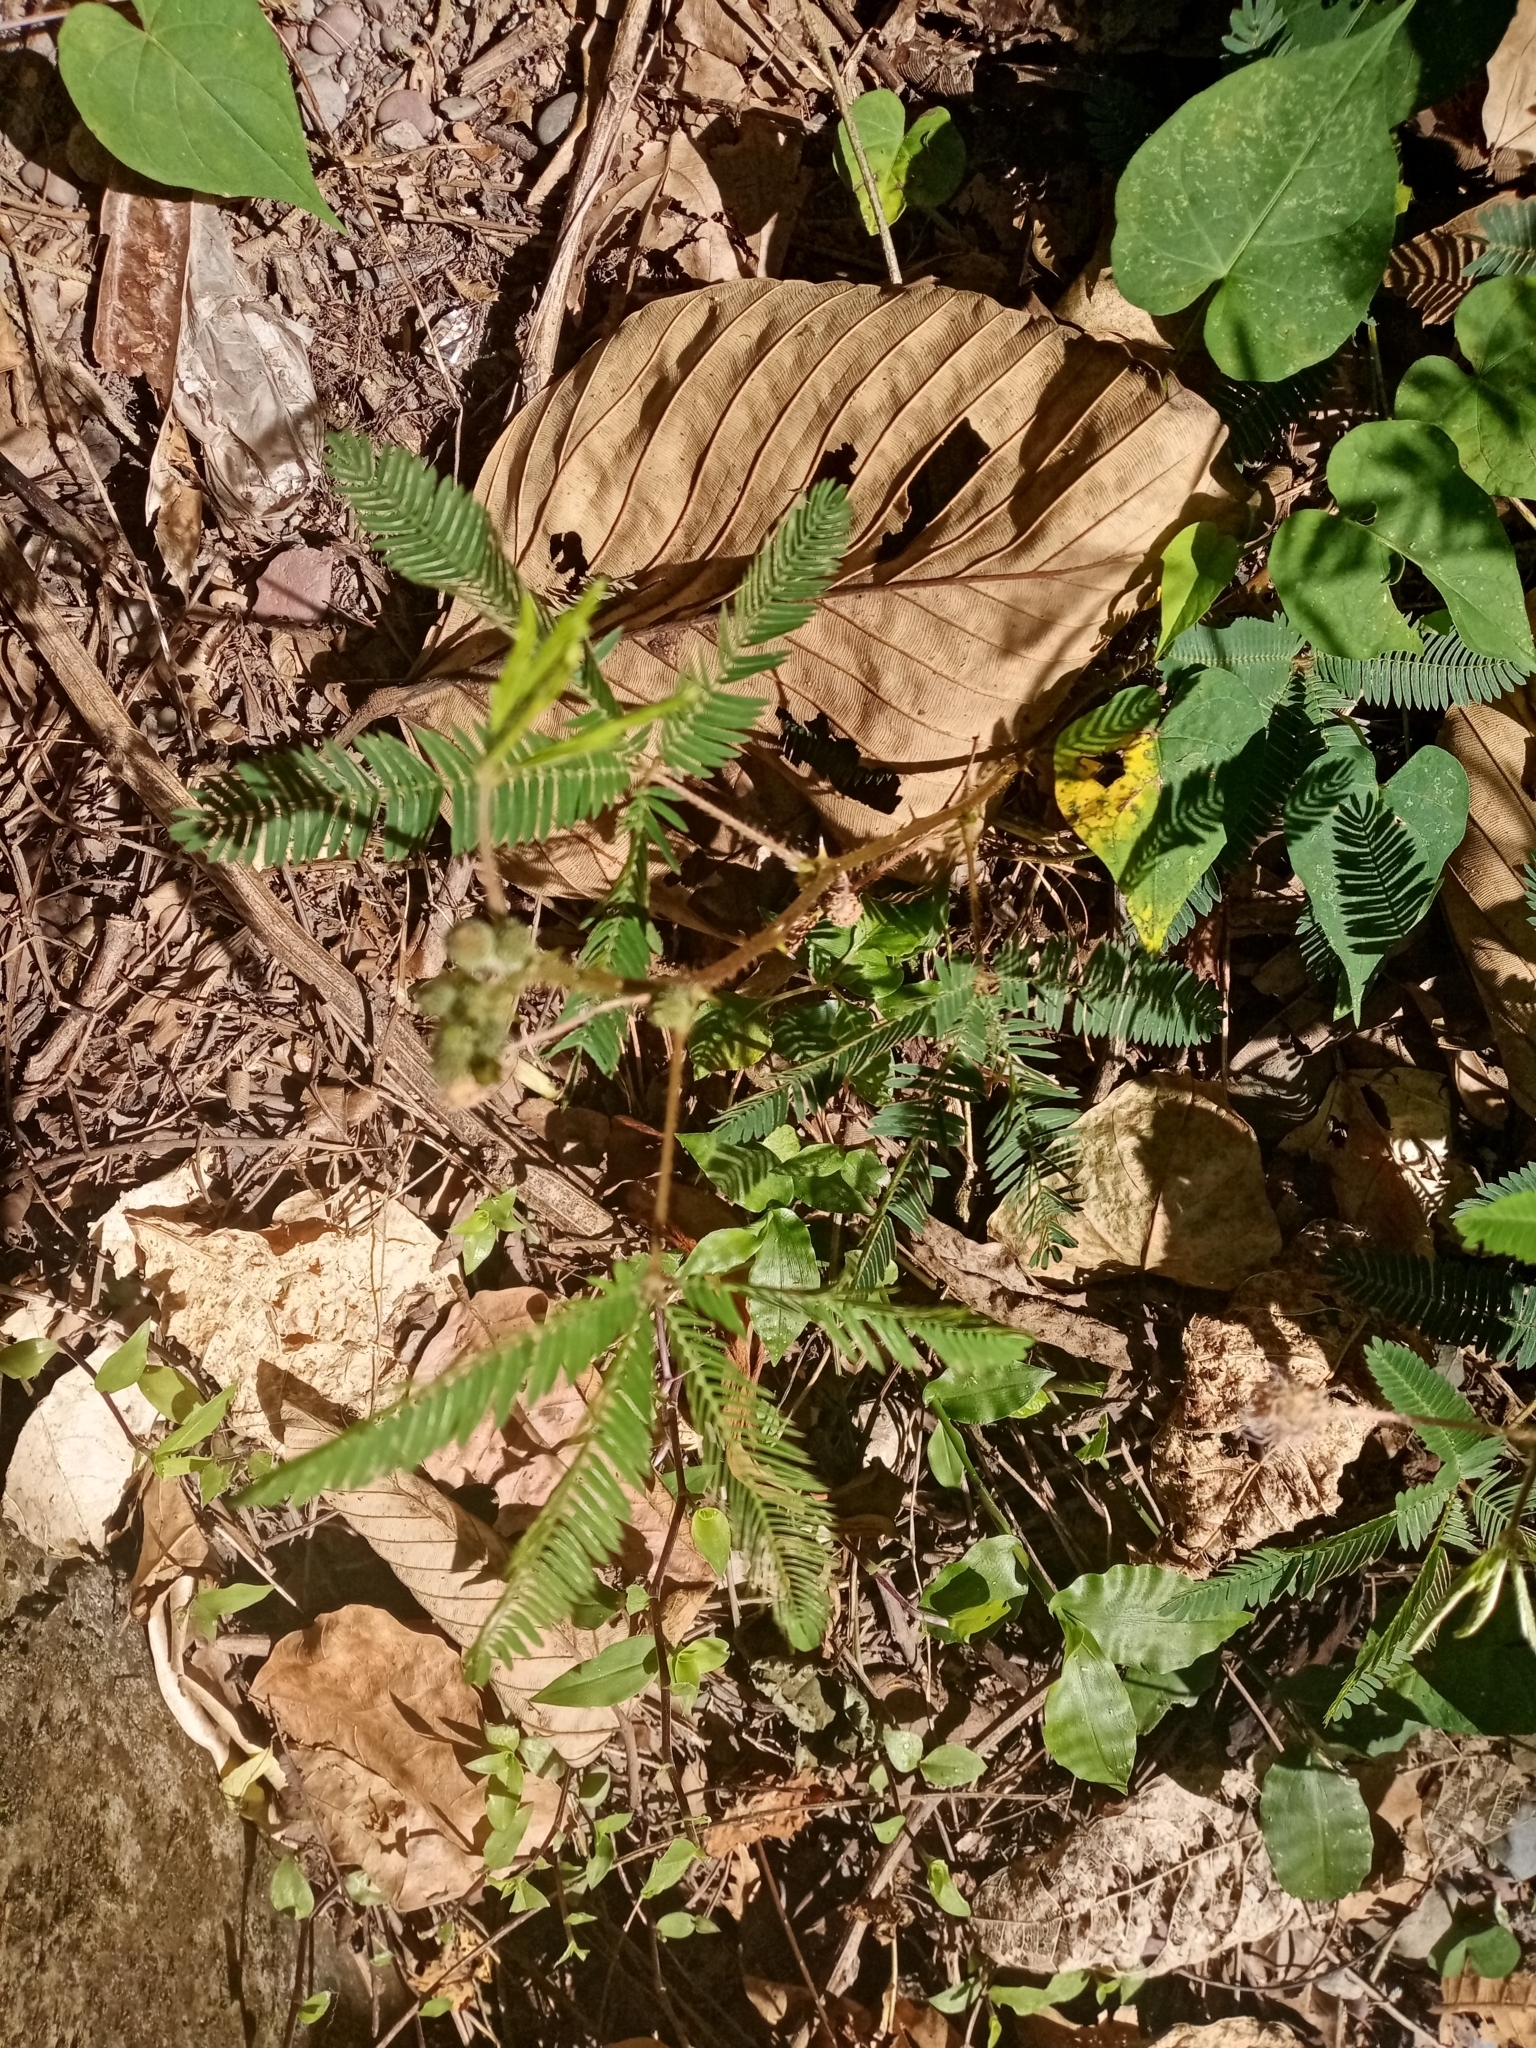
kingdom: Plantae
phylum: Tracheophyta
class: Magnoliopsida
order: Fabales
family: Fabaceae
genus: Mimosa
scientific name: Mimosa pudica
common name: Sensitive plant
